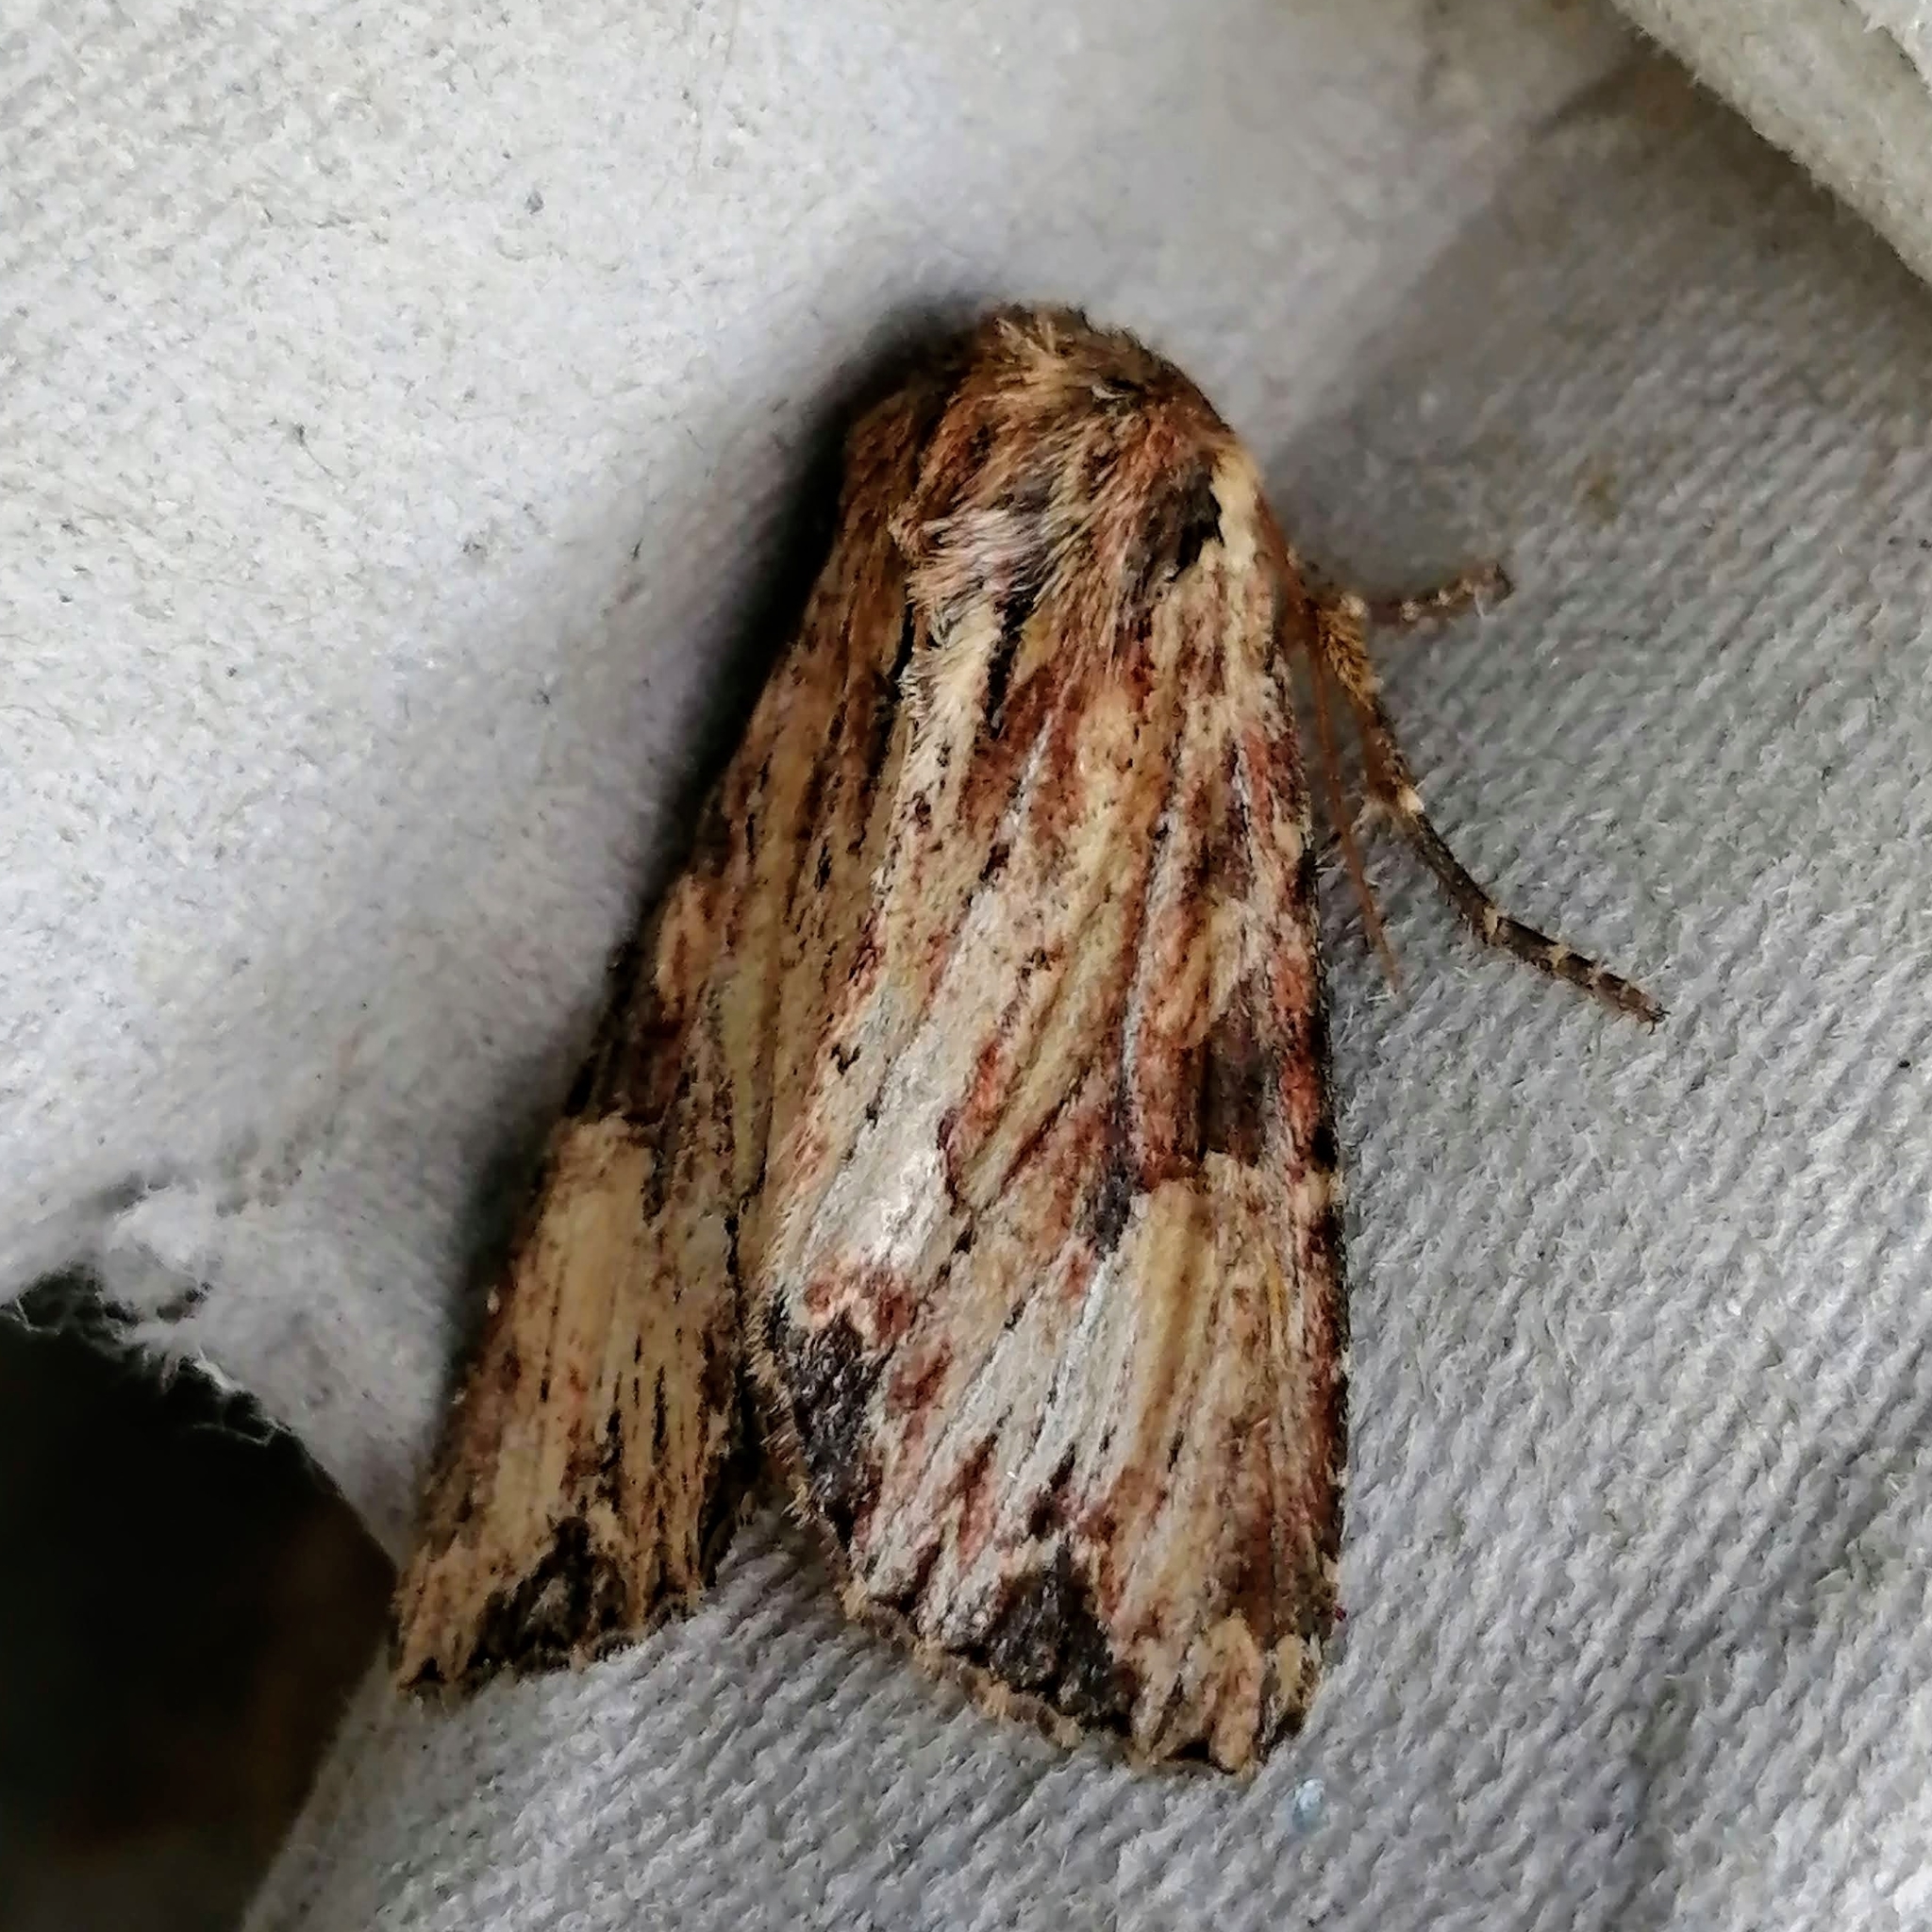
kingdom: Animalia
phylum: Arthropoda
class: Insecta
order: Lepidoptera
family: Noctuidae
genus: Apamea
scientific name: Apamea lignicolora
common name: Wood-colored apamea moth
